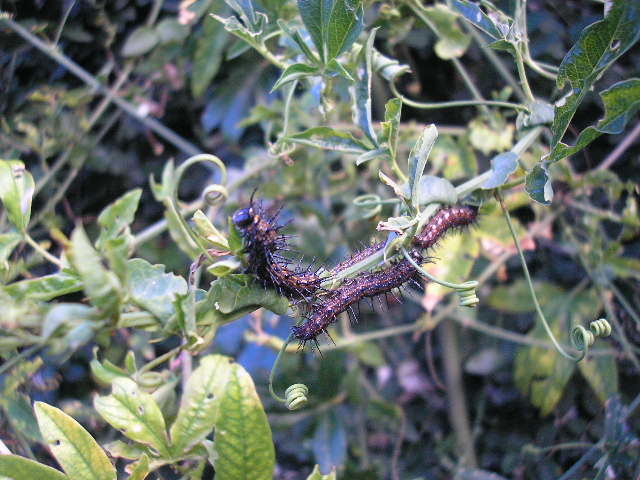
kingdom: Animalia
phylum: Arthropoda
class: Insecta
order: Lepidoptera
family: Nymphalidae
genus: Dione
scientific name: Dione vanillae
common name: Gulf fritillary
